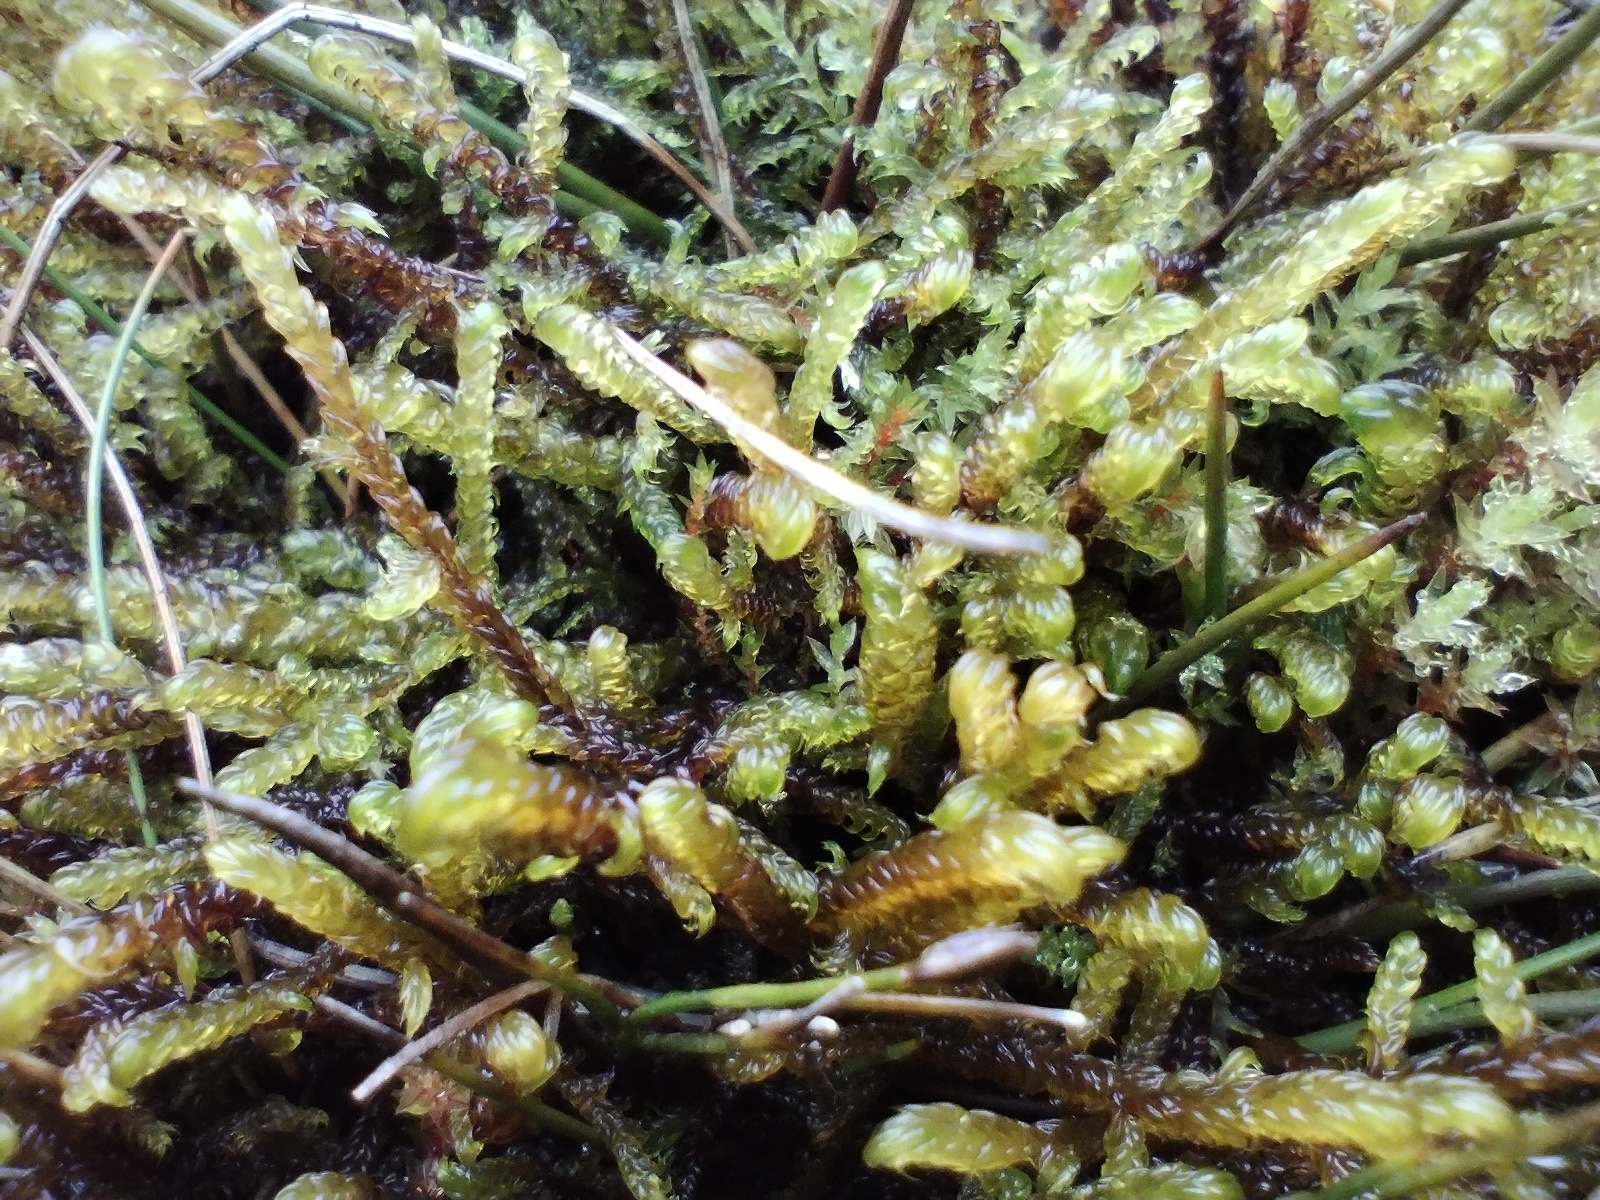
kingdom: Plantae
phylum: Bryophyta
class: Bryopsida
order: Hypnales
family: Scorpidiaceae
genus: Scorpidium
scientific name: Scorpidium cossonii
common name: Cosson's hook moss
